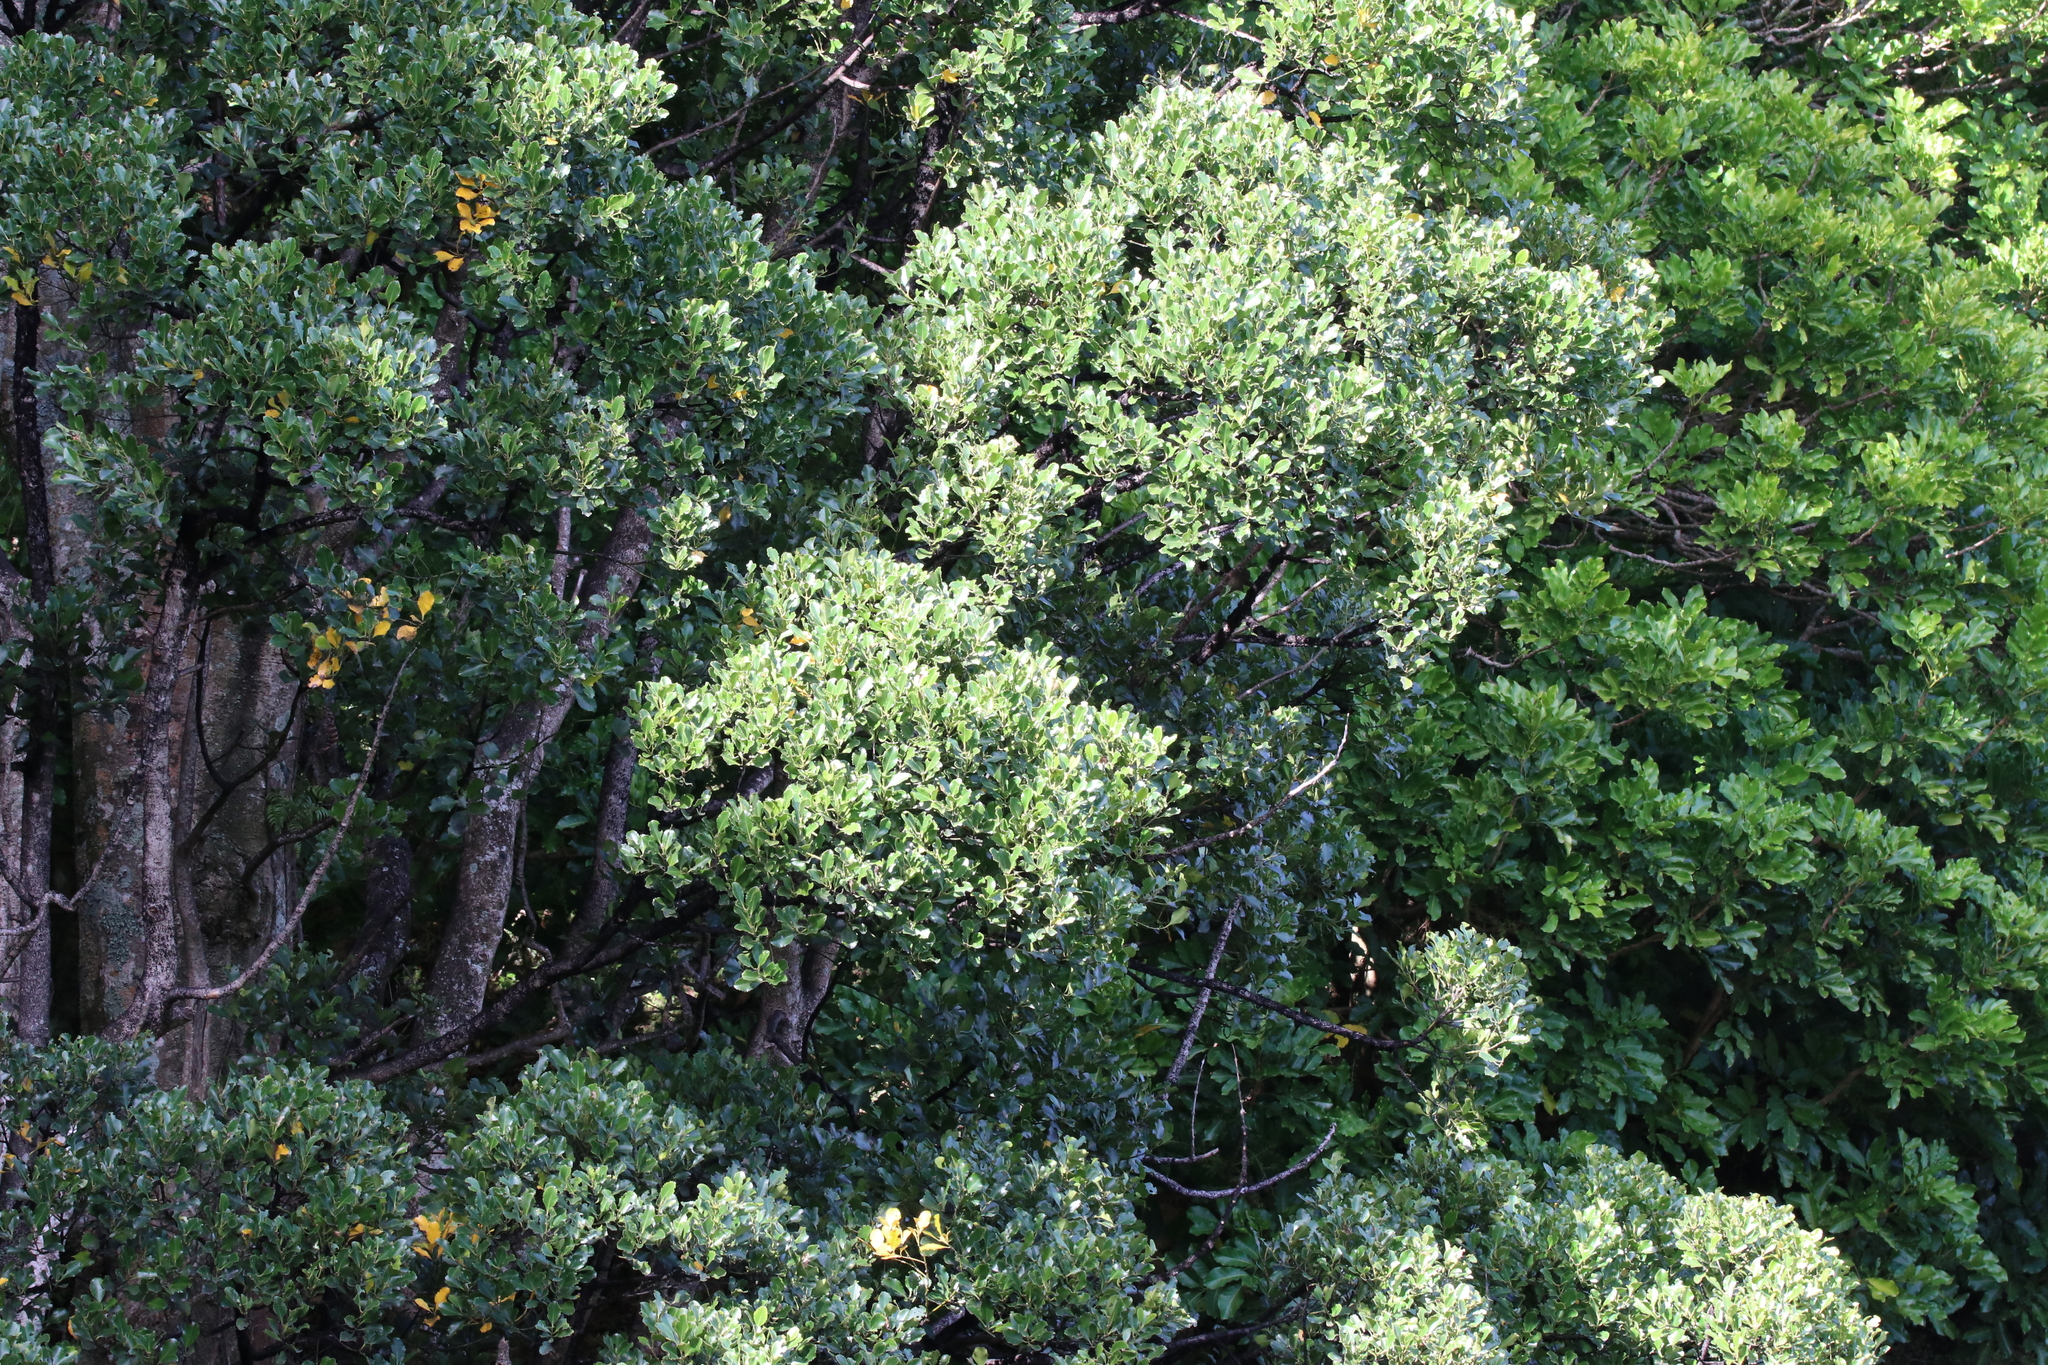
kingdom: Plantae
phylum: Tracheophyta
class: Magnoliopsida
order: Laurales
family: Atherospermataceae
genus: Laurelia
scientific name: Laurelia novae-zelandiae
